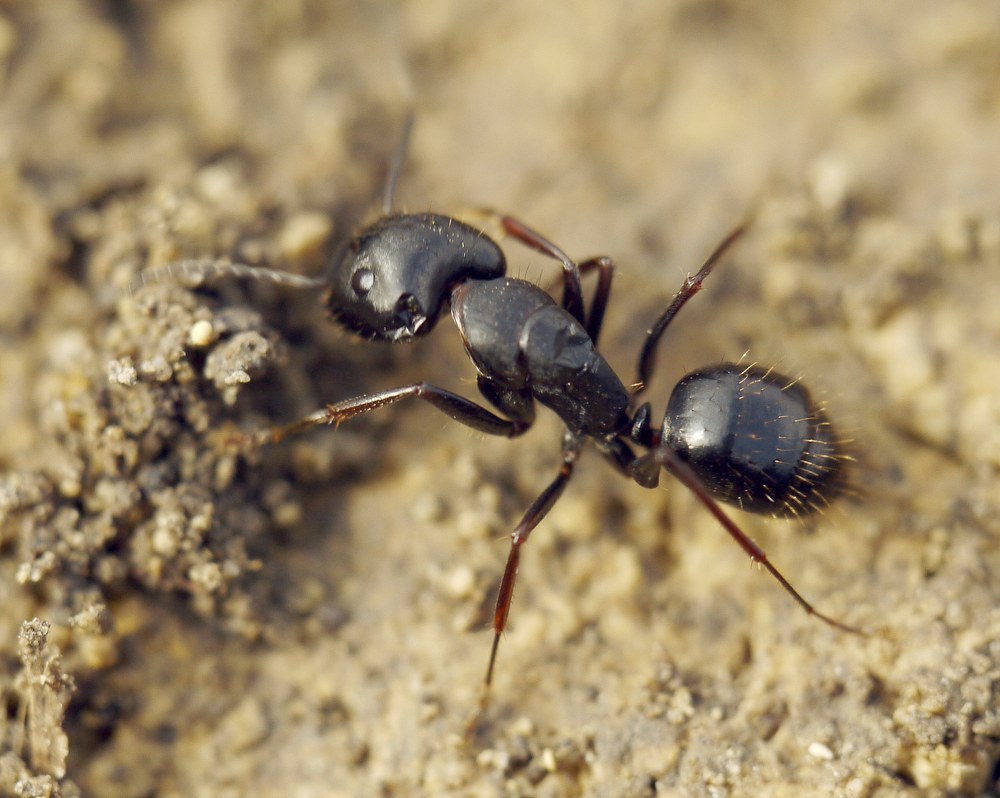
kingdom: Animalia
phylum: Arthropoda
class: Insecta
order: Hymenoptera
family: Formicidae
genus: Camponotus
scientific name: Camponotus aethiops
